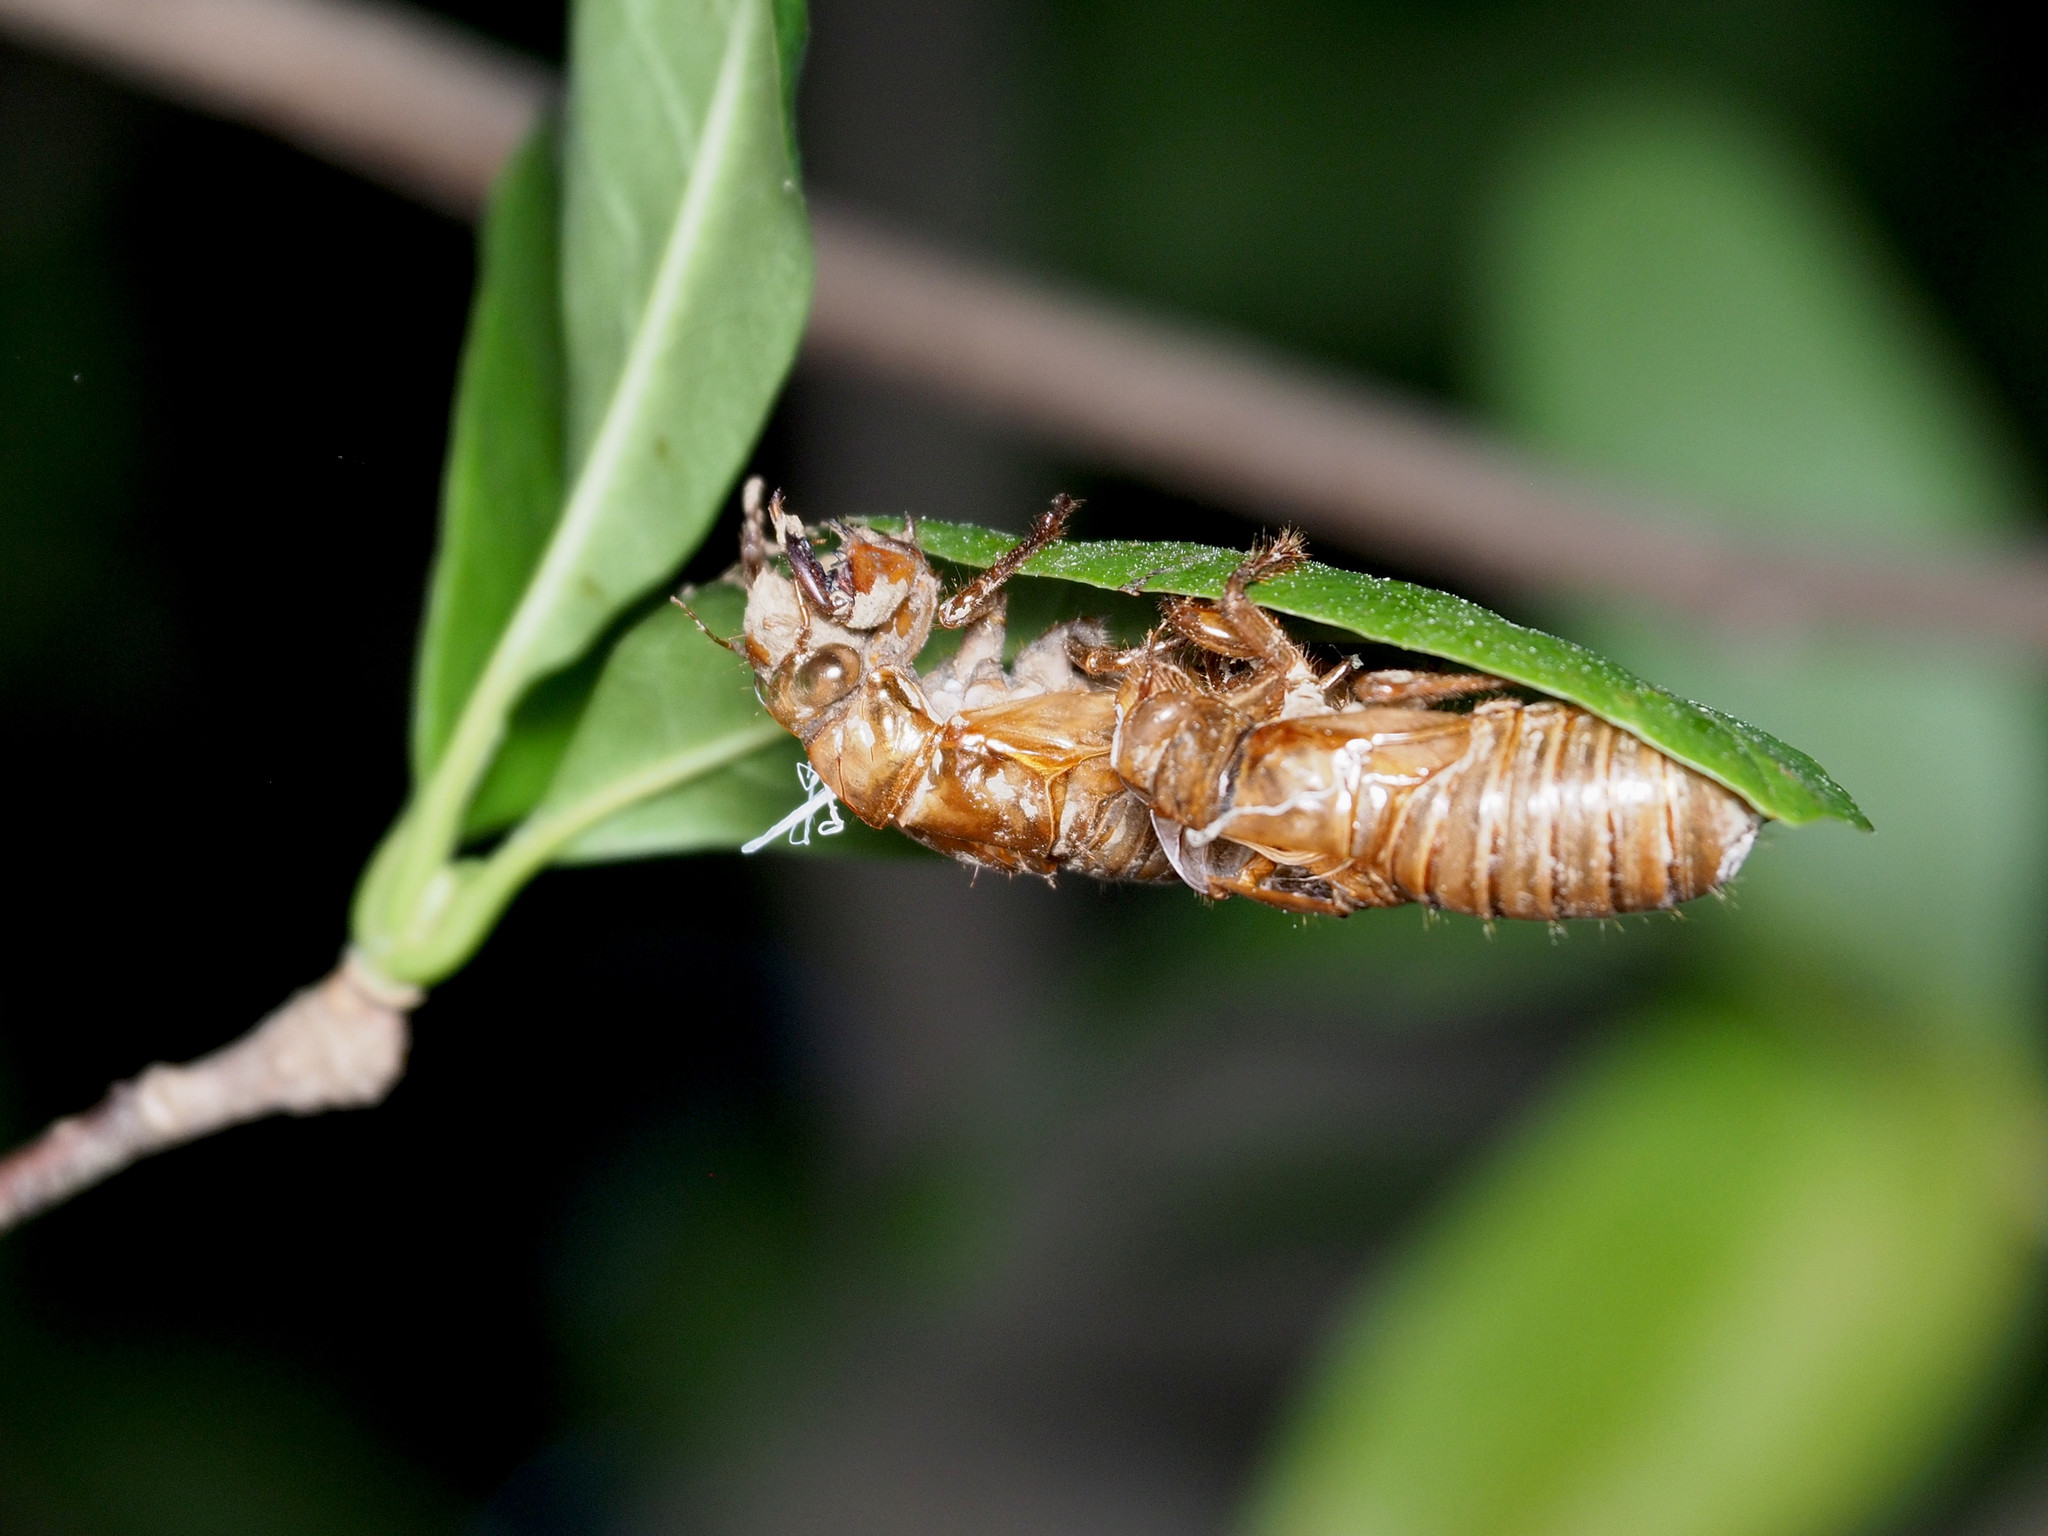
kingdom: Animalia
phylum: Arthropoda
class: Insecta
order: Hemiptera
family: Cicadidae
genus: Magicicada
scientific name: Magicicada
